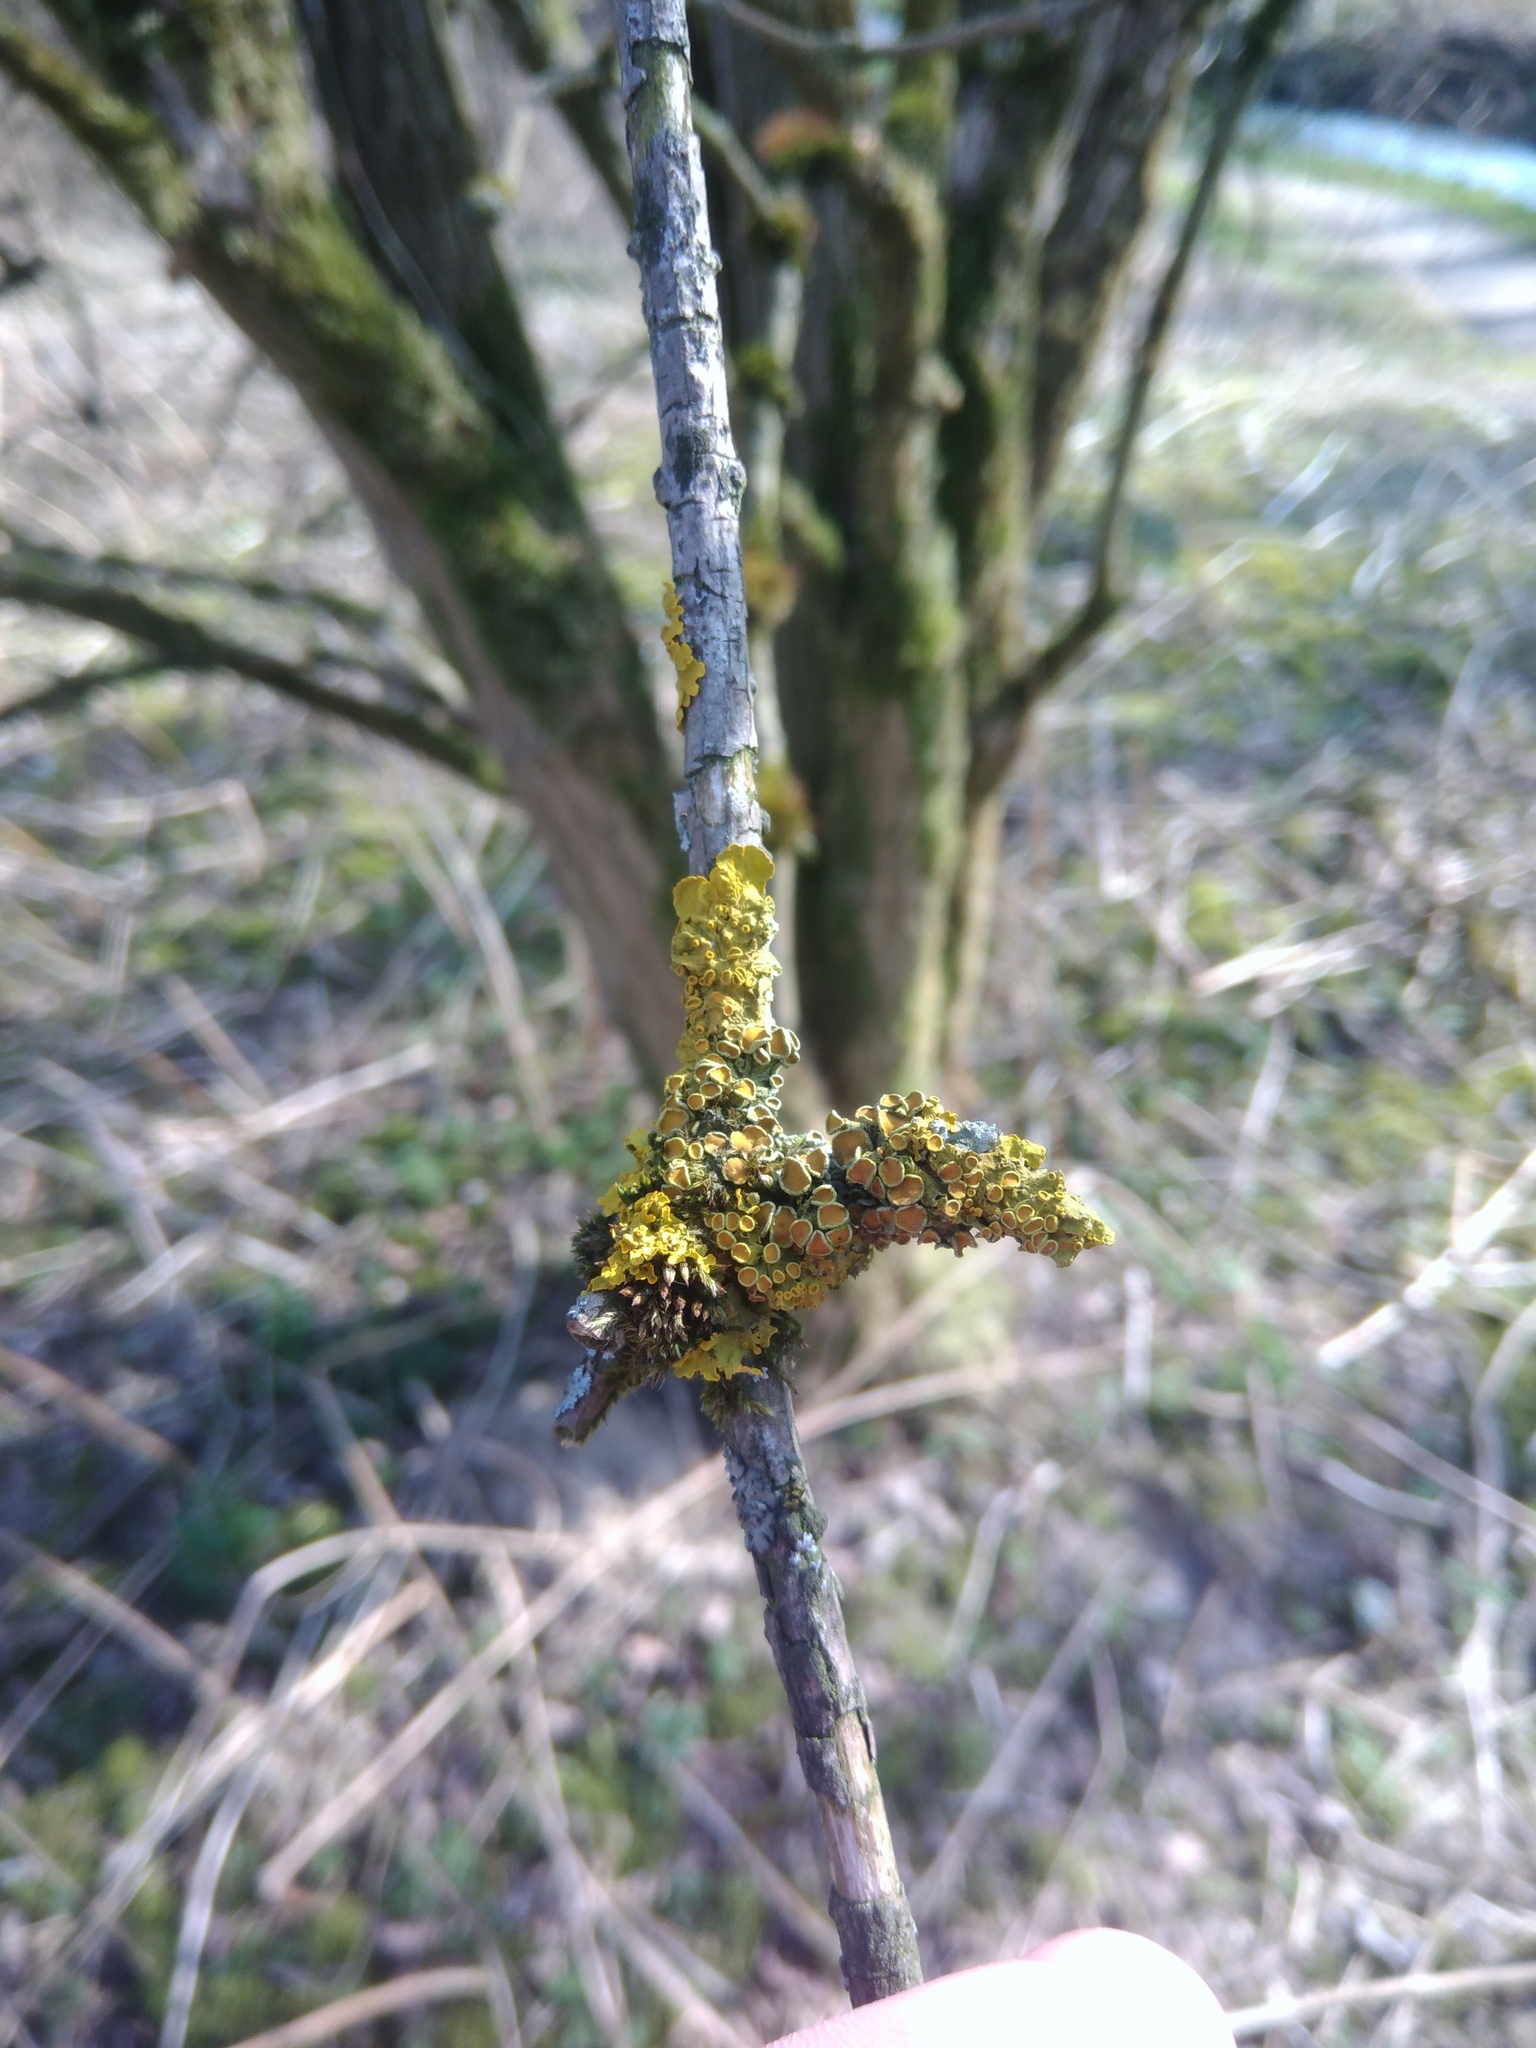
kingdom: Fungi
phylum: Ascomycota
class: Lecanoromycetes
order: Teloschistales
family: Teloschistaceae
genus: Xanthoria
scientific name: Xanthoria parietina
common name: Common orange lichen
